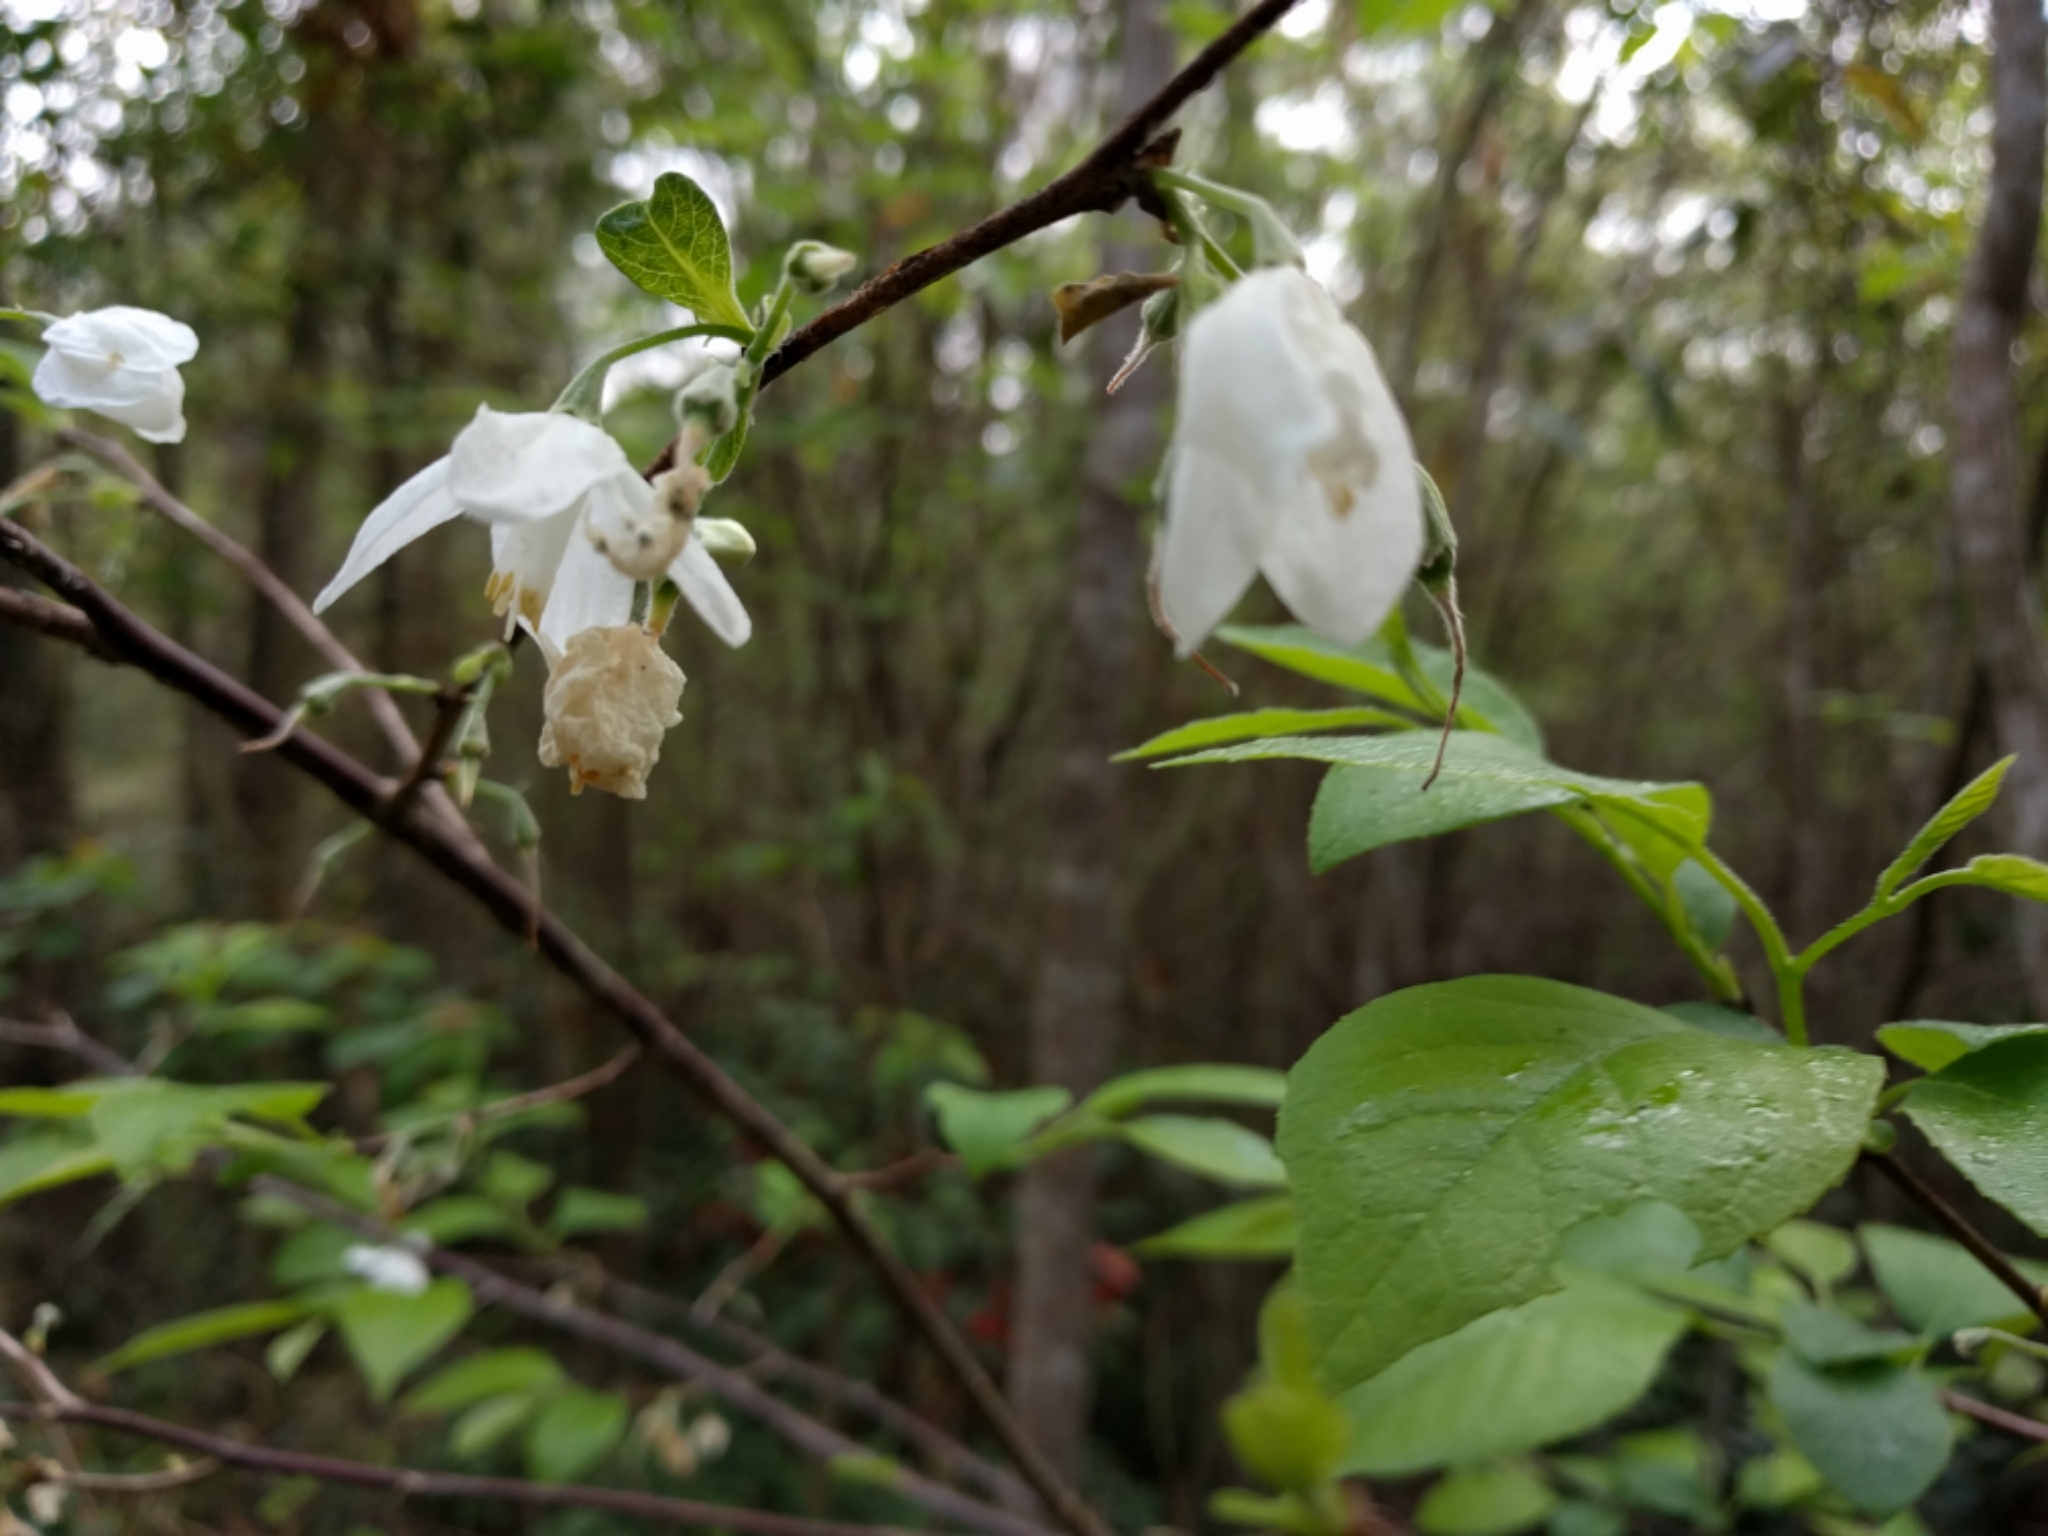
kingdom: Plantae
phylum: Tracheophyta
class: Magnoliopsida
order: Ericales
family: Styracaceae
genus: Styrax
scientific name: Styrax americanus
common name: American snowbell
